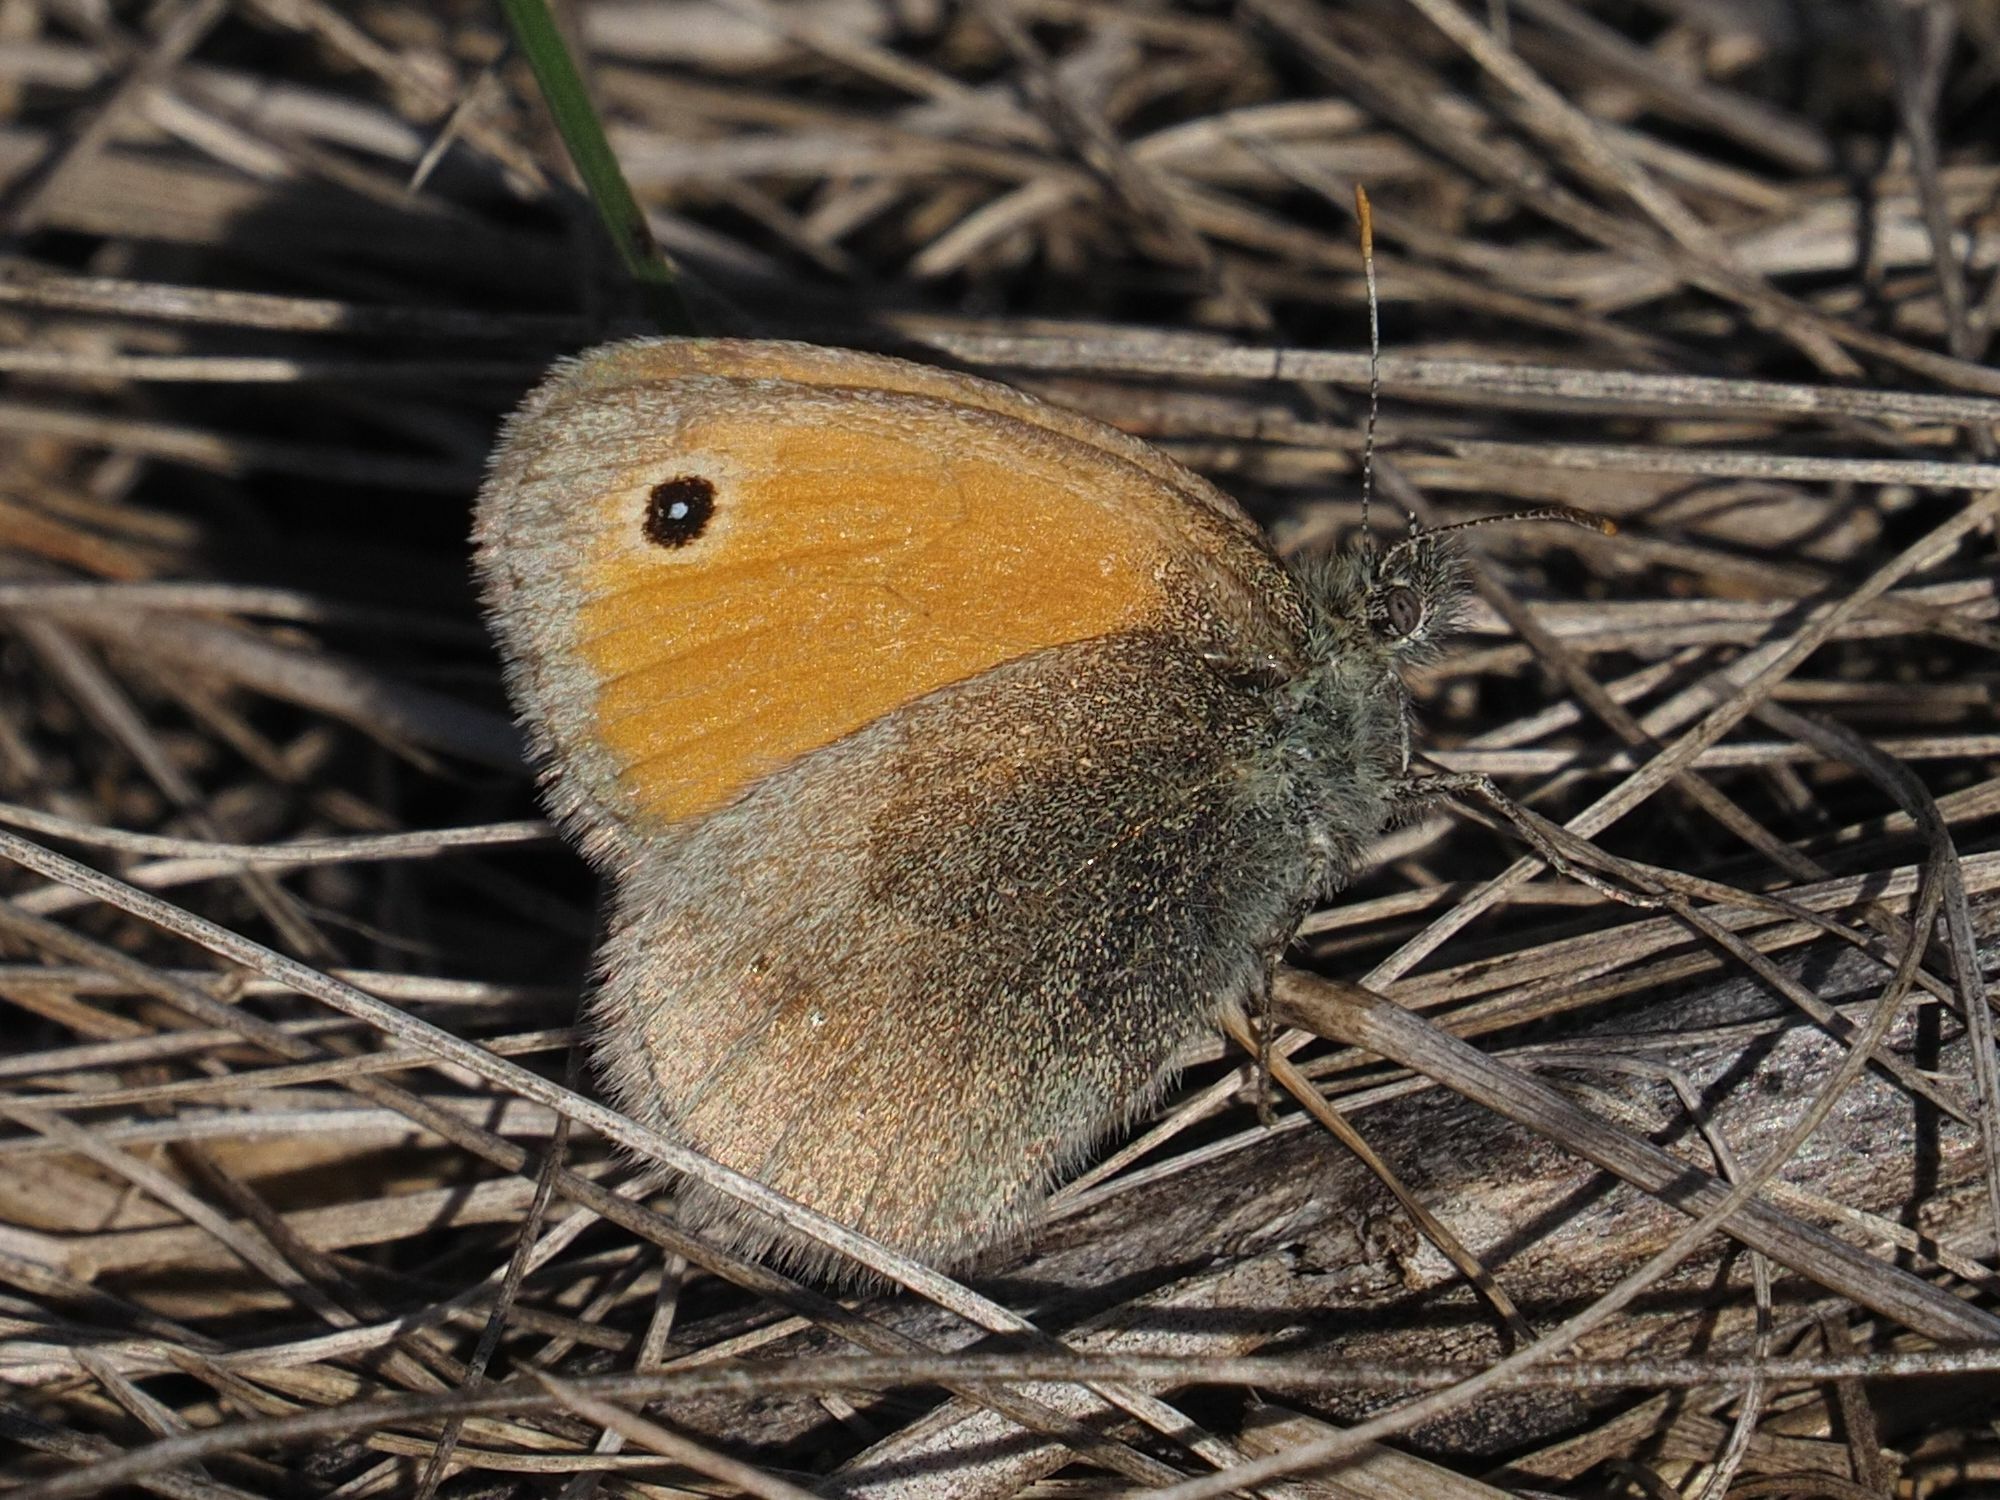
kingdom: Animalia
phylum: Arthropoda
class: Insecta
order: Lepidoptera
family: Nymphalidae
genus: Coenonympha
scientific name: Coenonympha pamphilus
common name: Small heath
